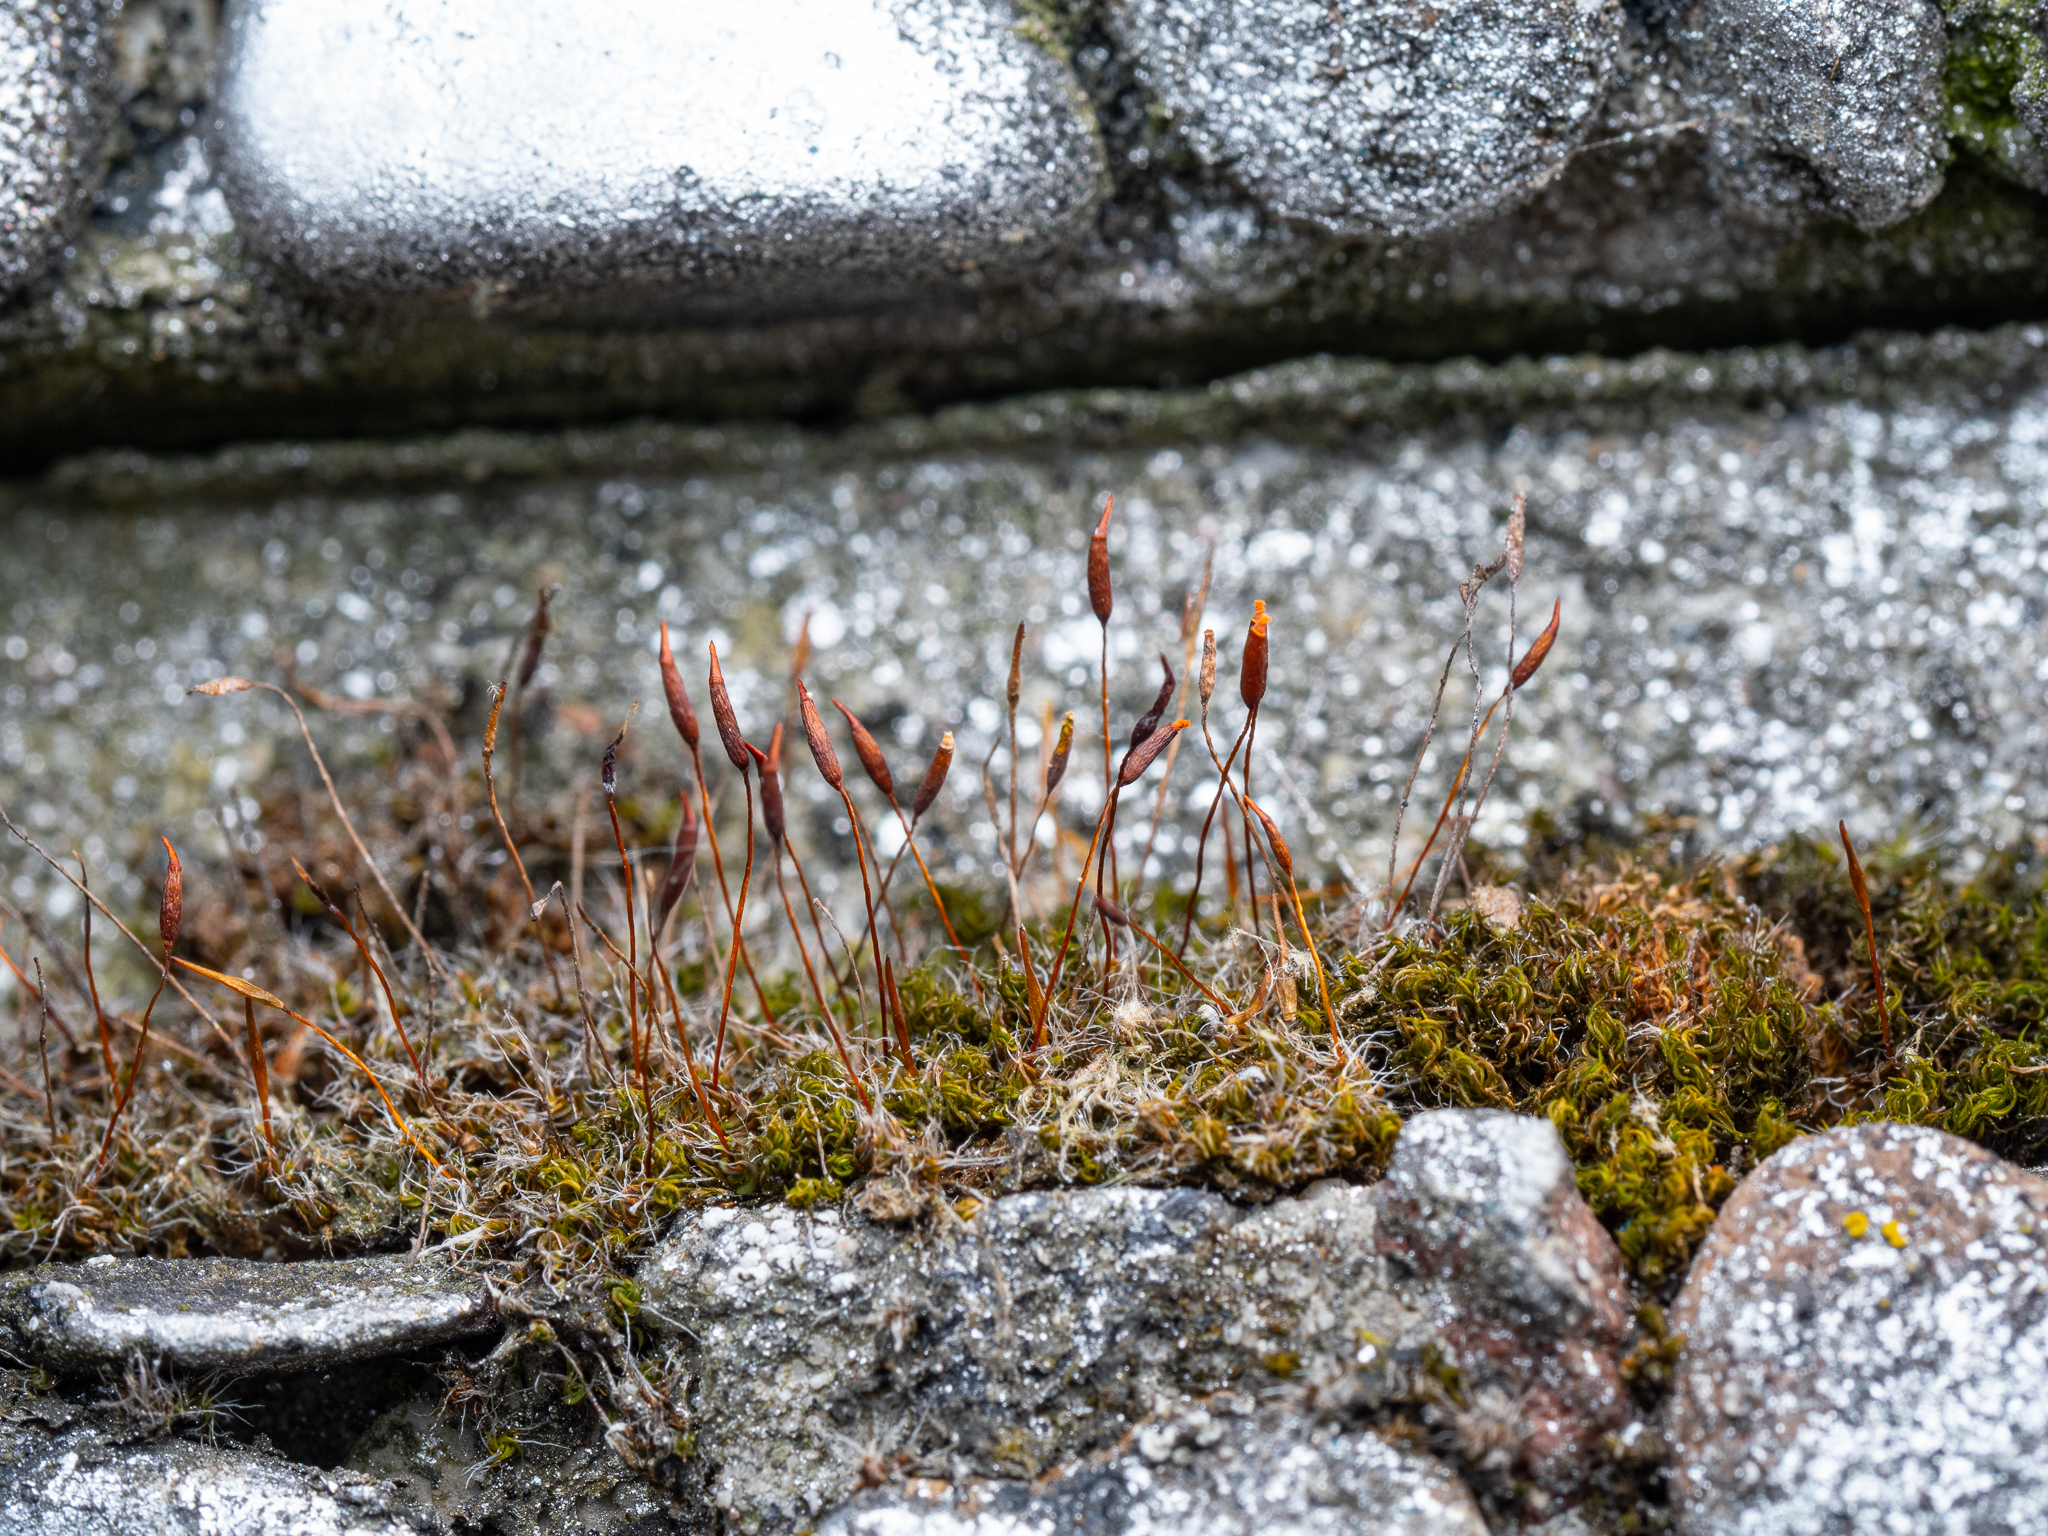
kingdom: Plantae
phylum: Bryophyta
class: Bryopsida
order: Pottiales
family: Pottiaceae
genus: Tortula
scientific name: Tortula muralis
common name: Wall screw-moss
